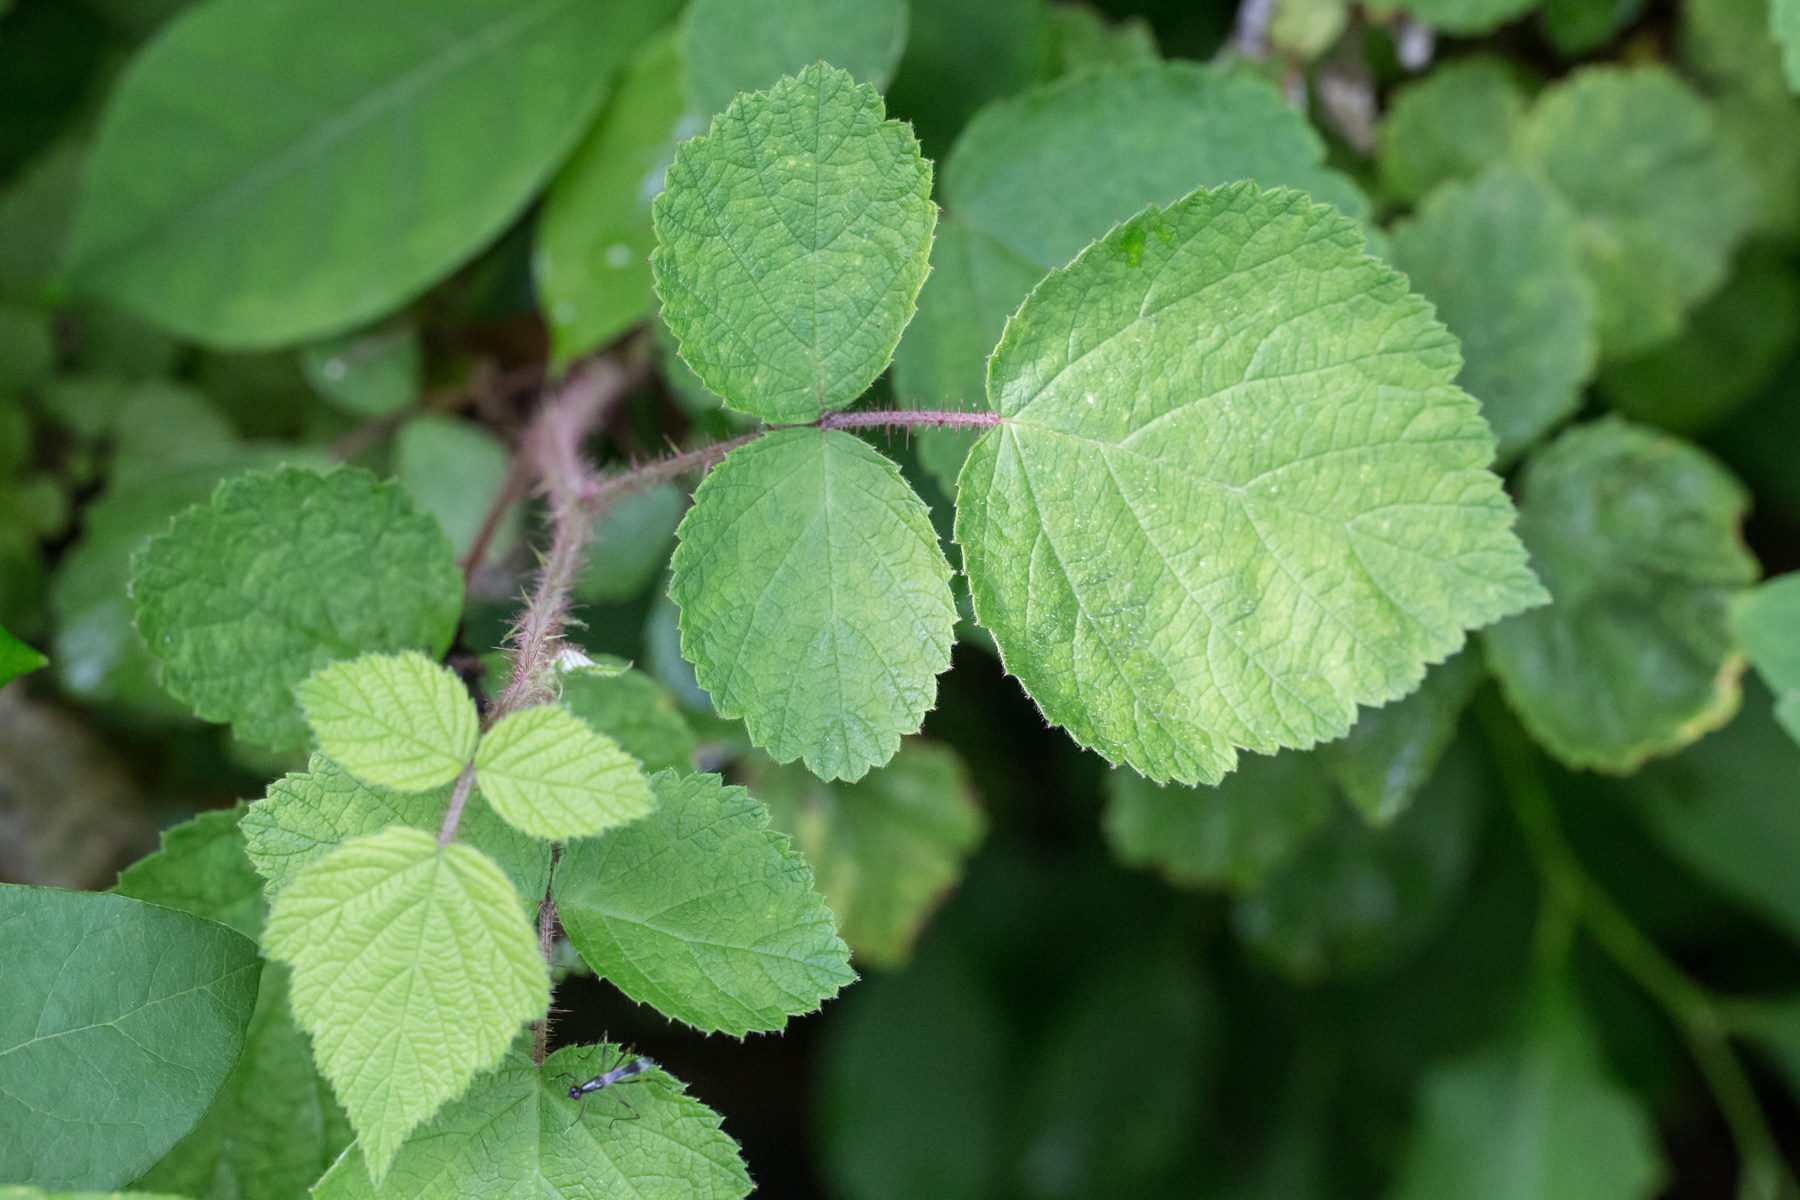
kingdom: Plantae
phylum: Tracheophyta
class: Magnoliopsida
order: Rosales
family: Rosaceae
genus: Rubus
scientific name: Rubus phoenicolasius
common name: Japanese wineberry
